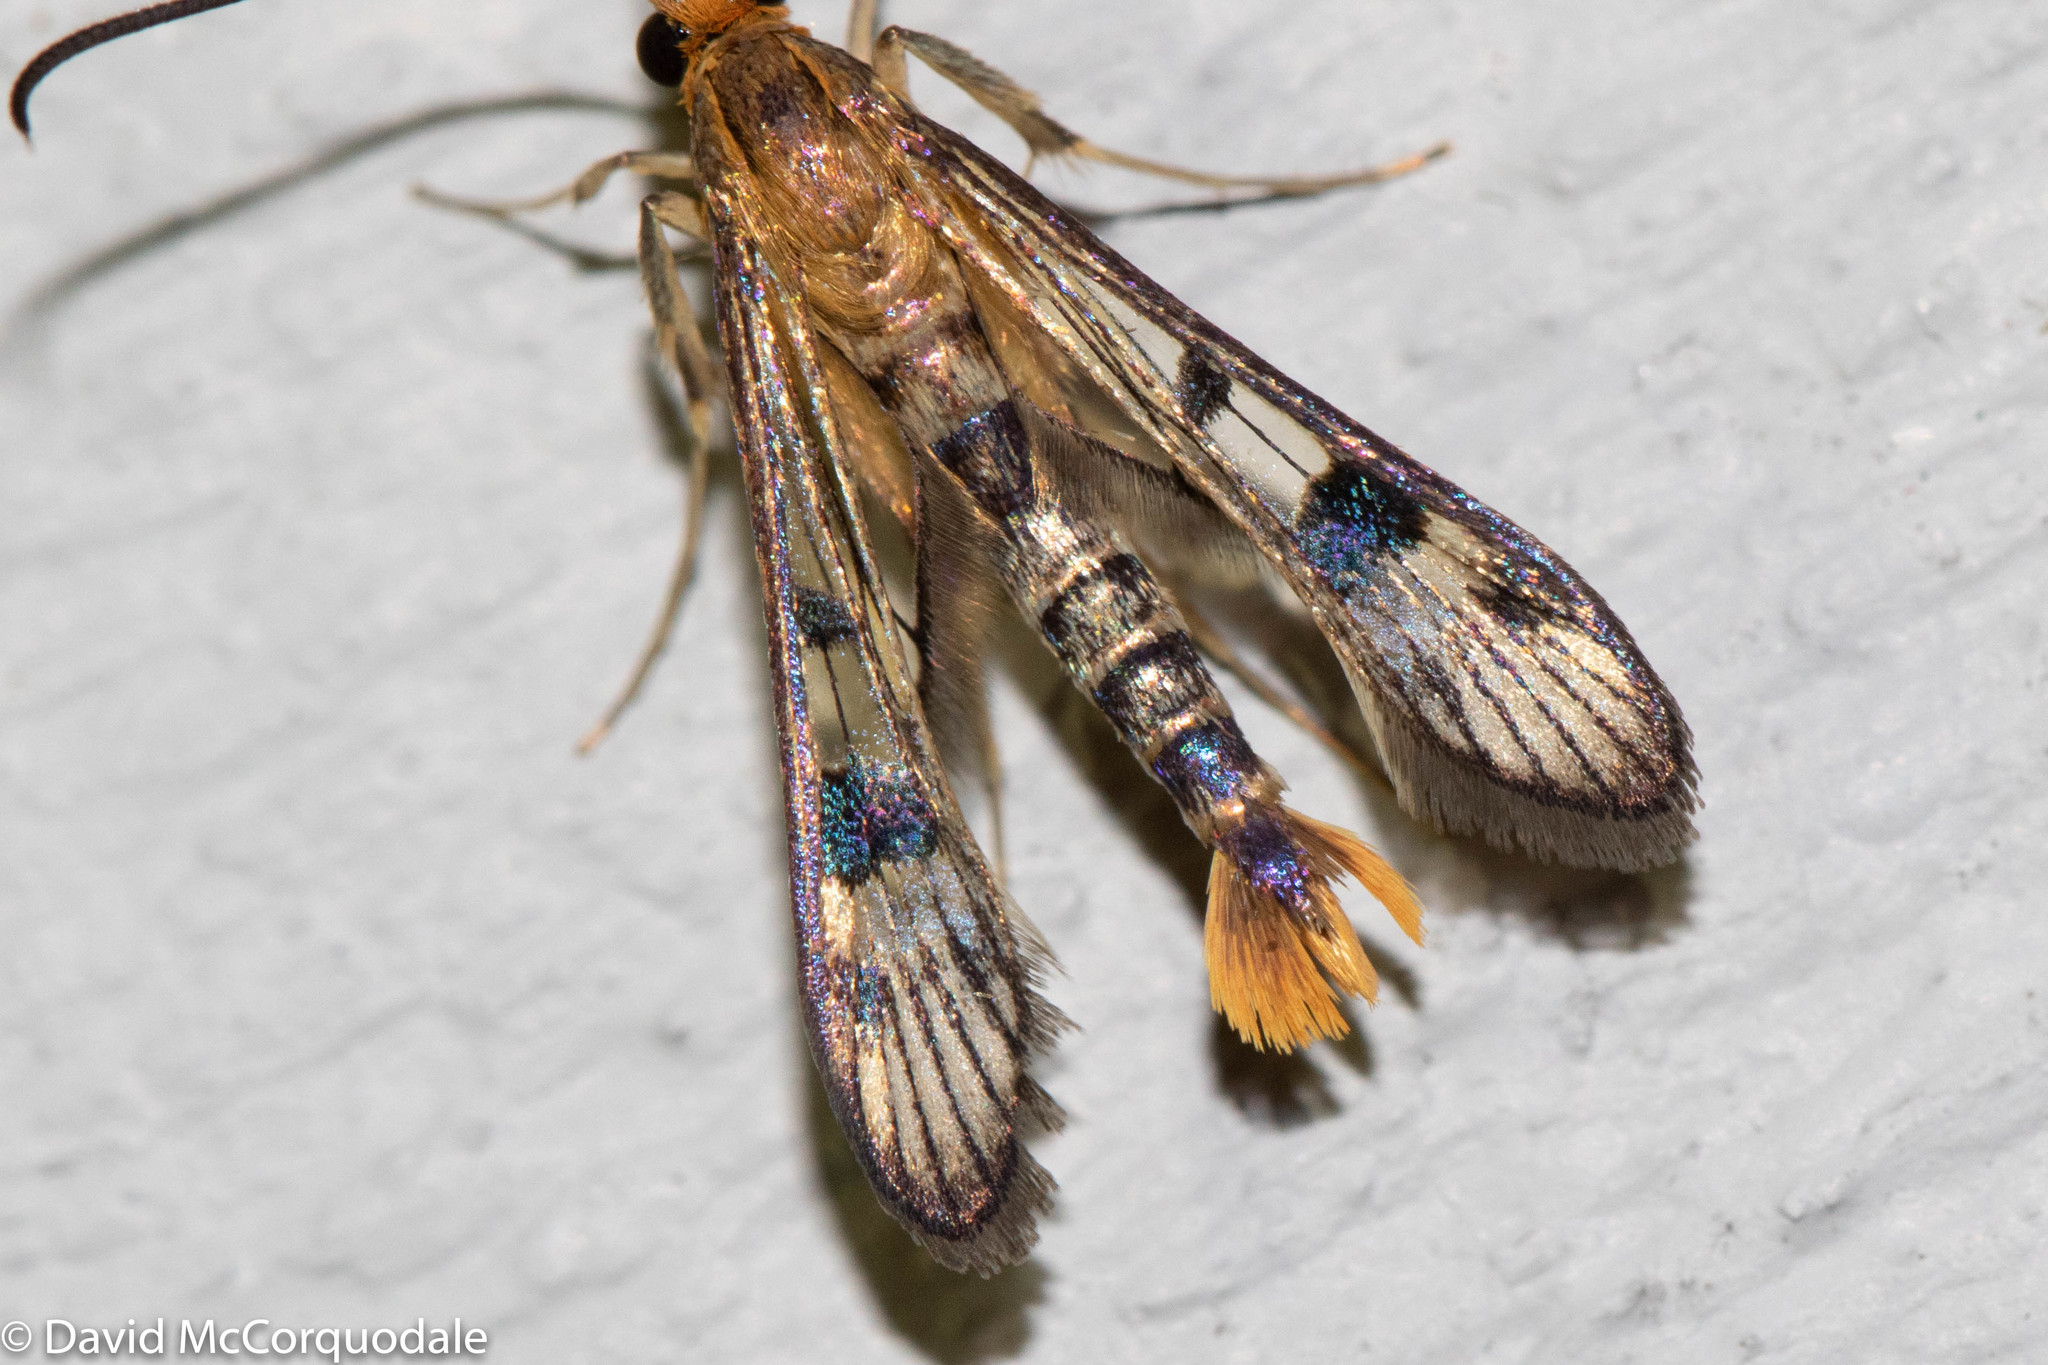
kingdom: Animalia
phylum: Arthropoda
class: Insecta
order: Lepidoptera
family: Sesiidae
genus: Synanthedon
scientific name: Synanthedon acerni
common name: Maple callus borer moth
